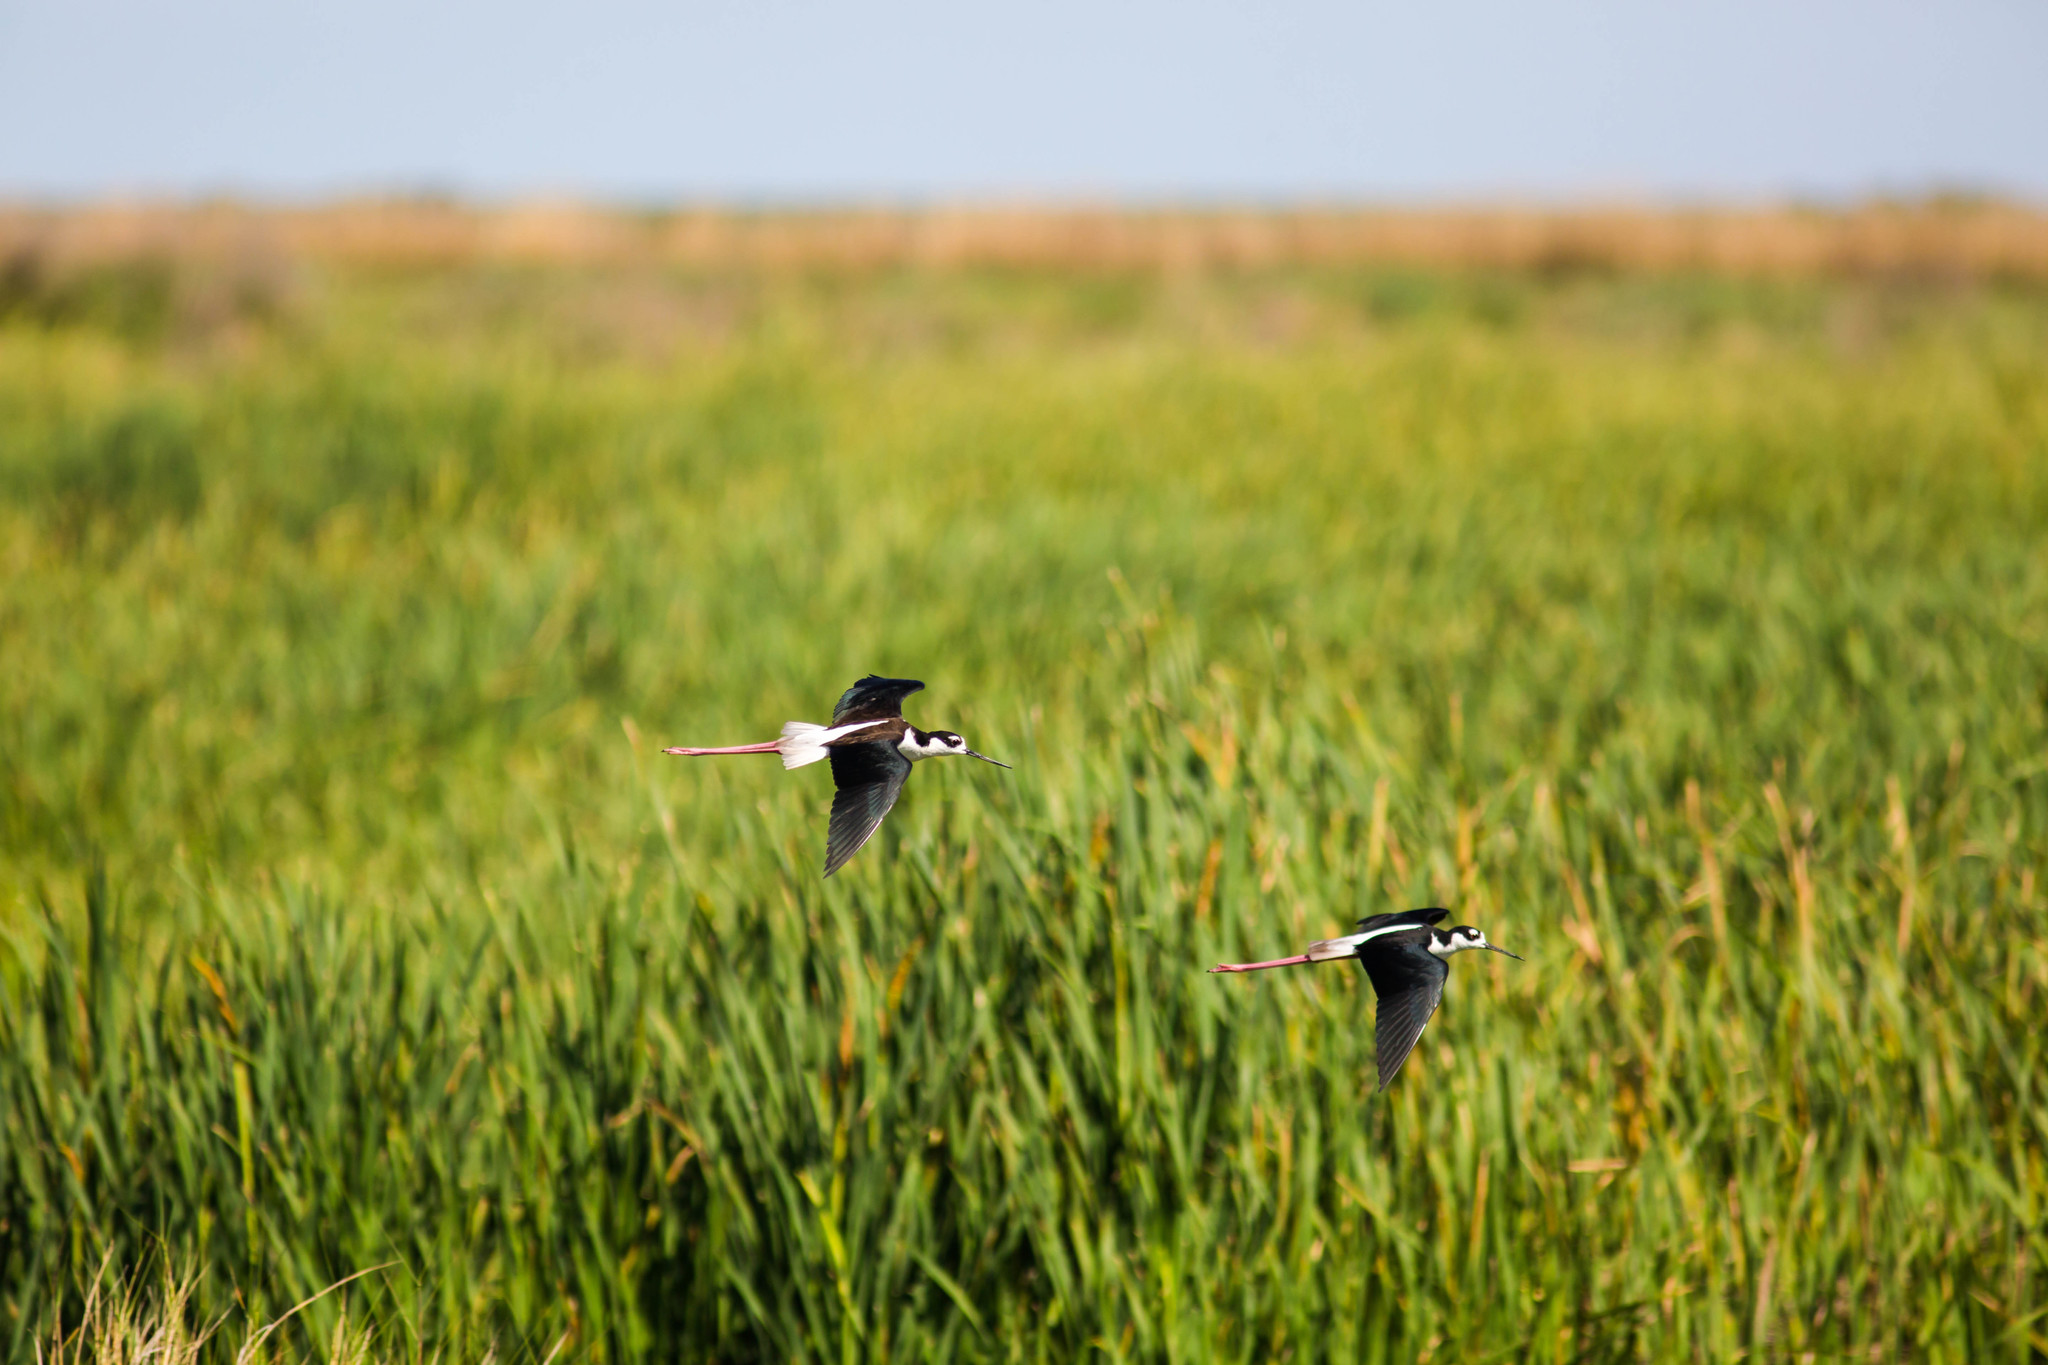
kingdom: Animalia
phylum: Chordata
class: Aves
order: Charadriiformes
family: Recurvirostridae
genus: Himantopus
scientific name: Himantopus mexicanus
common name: Black-necked stilt
